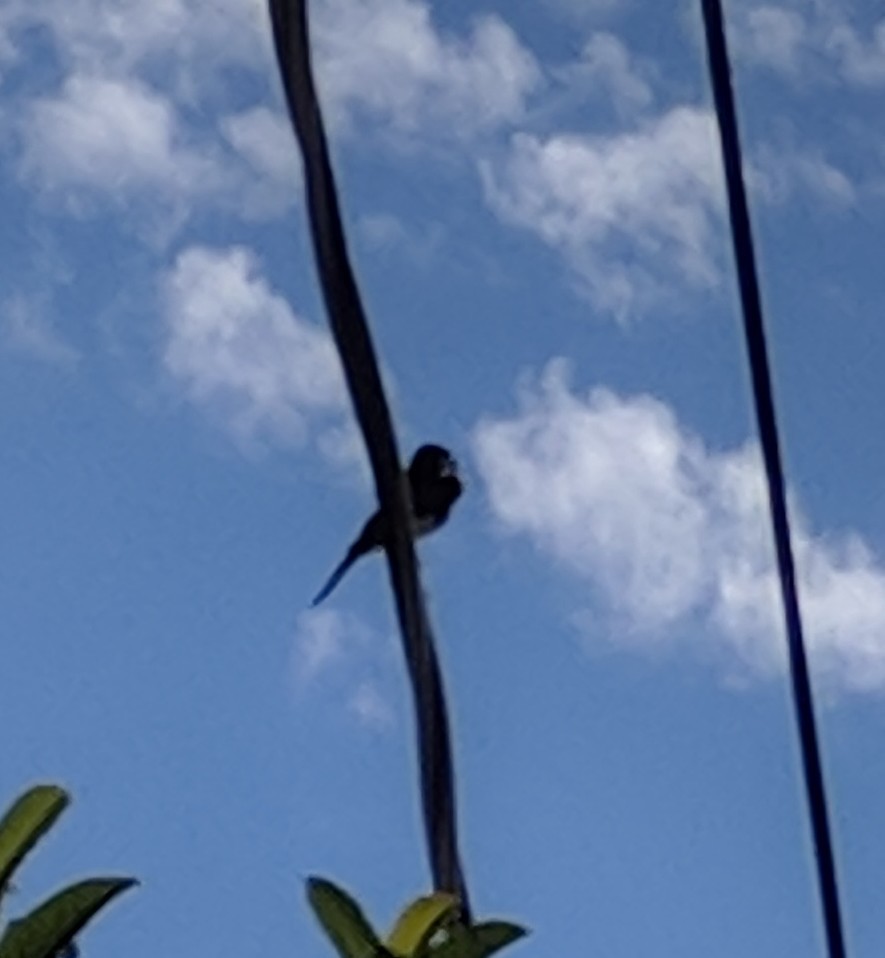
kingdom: Animalia
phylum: Chordata
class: Aves
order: Passeriformes
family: Tyrannidae
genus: Sayornis
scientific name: Sayornis nigricans
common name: Black phoebe
